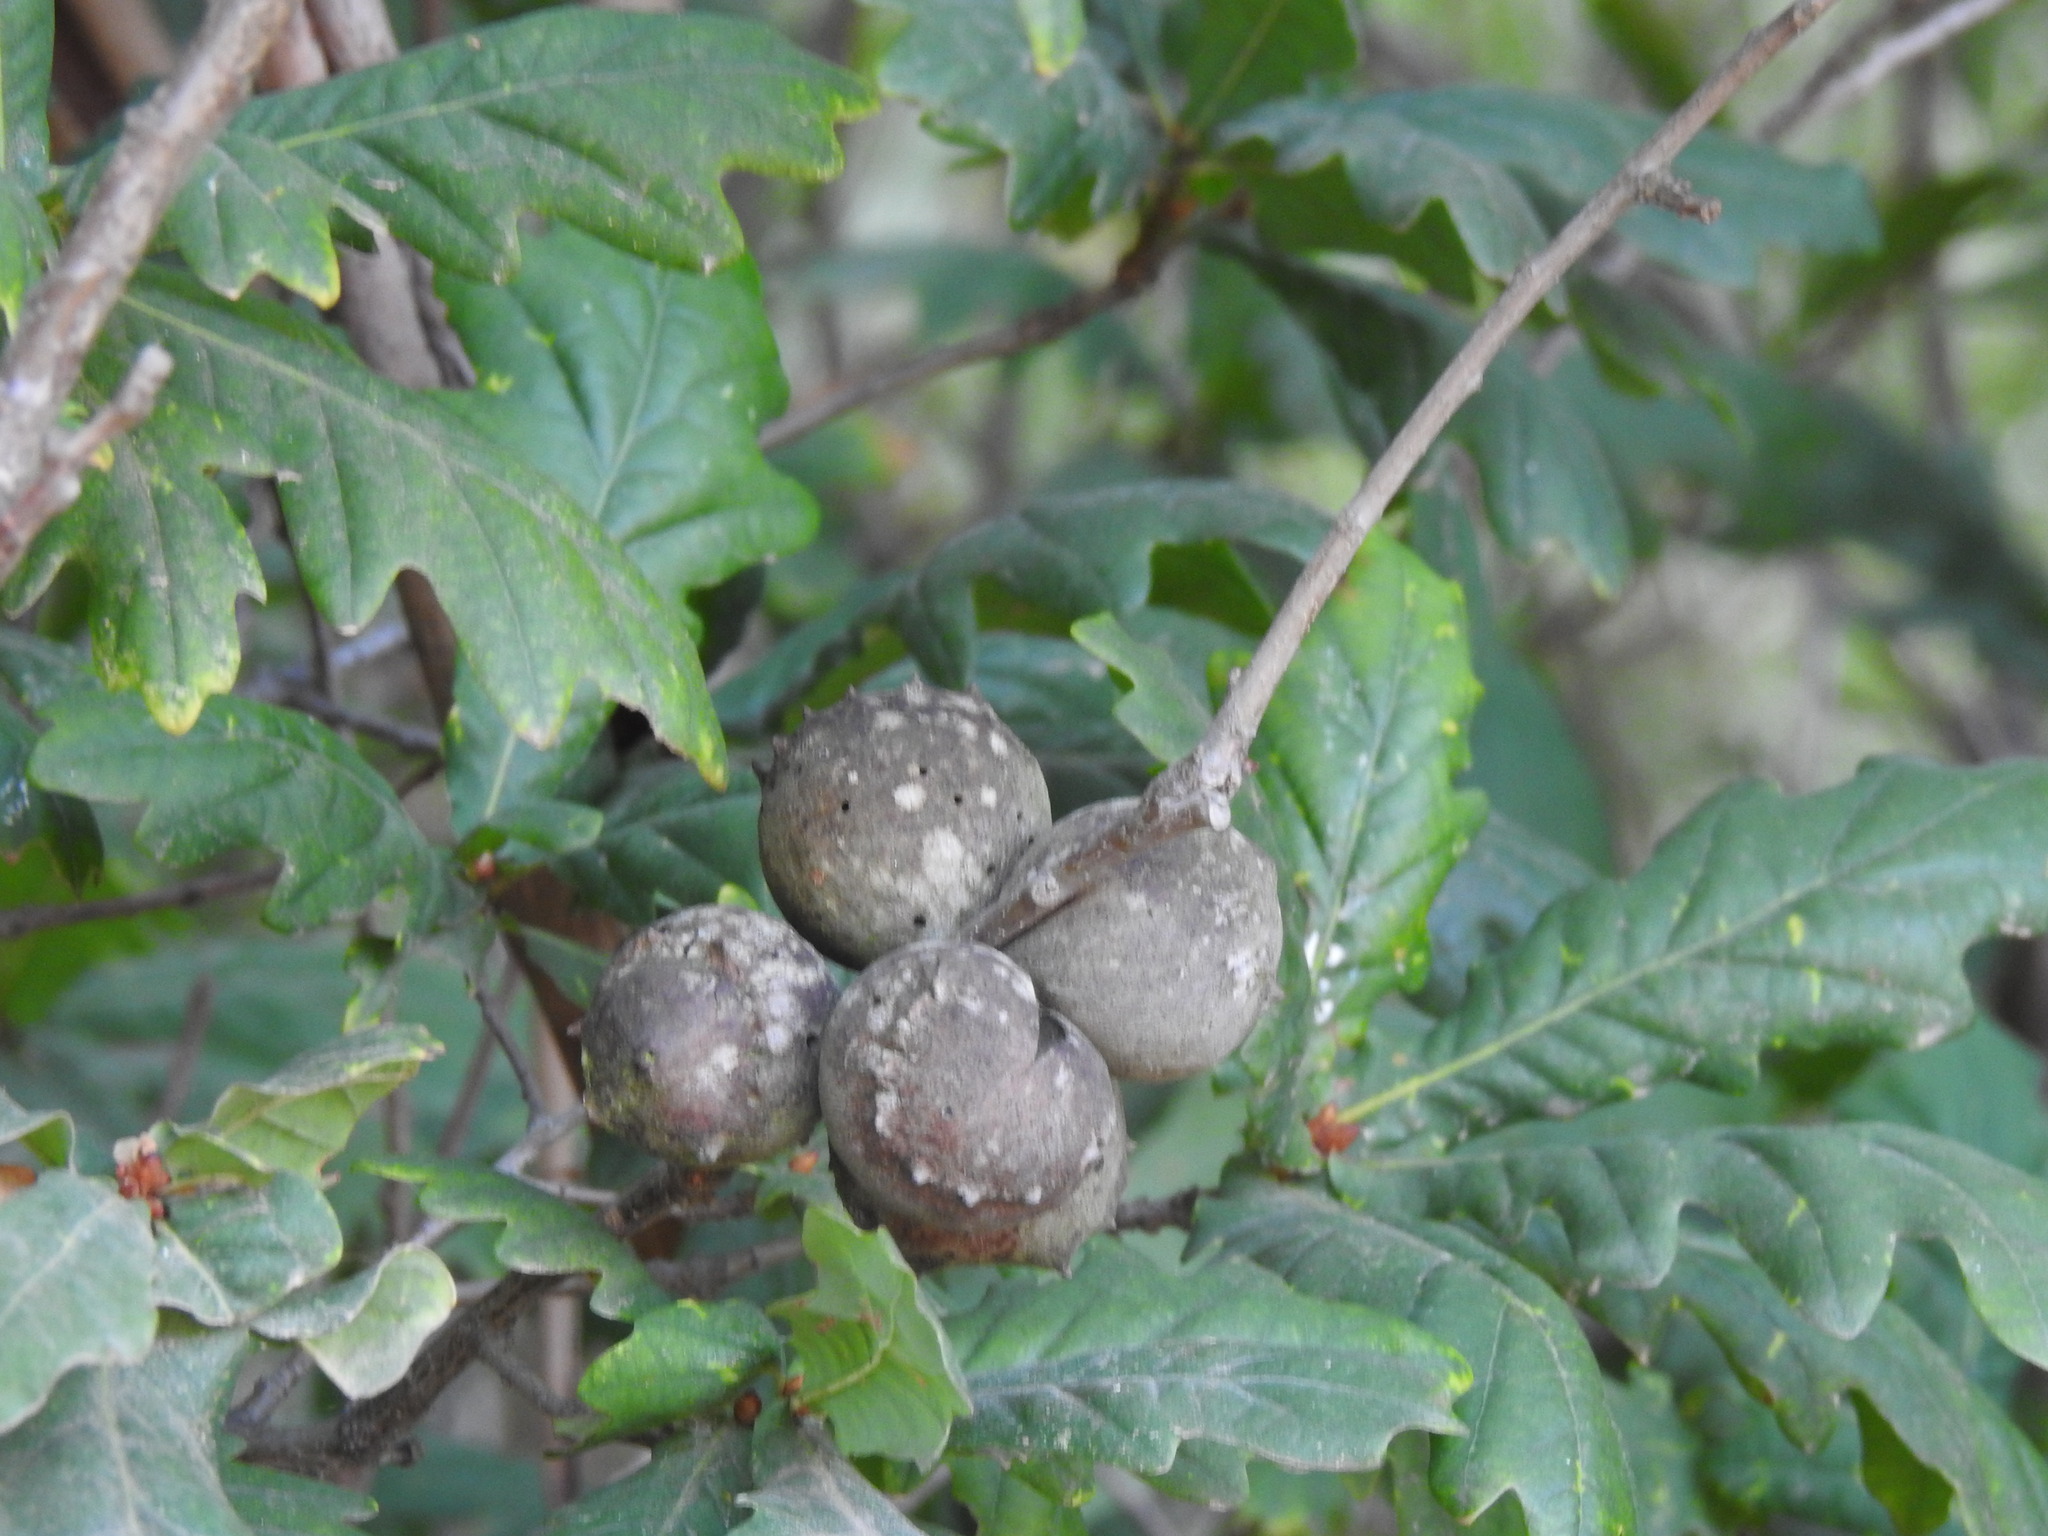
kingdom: Animalia
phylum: Arthropoda
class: Insecta
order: Hymenoptera
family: Cynipidae
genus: Andricus
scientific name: Andricus quercustozae
